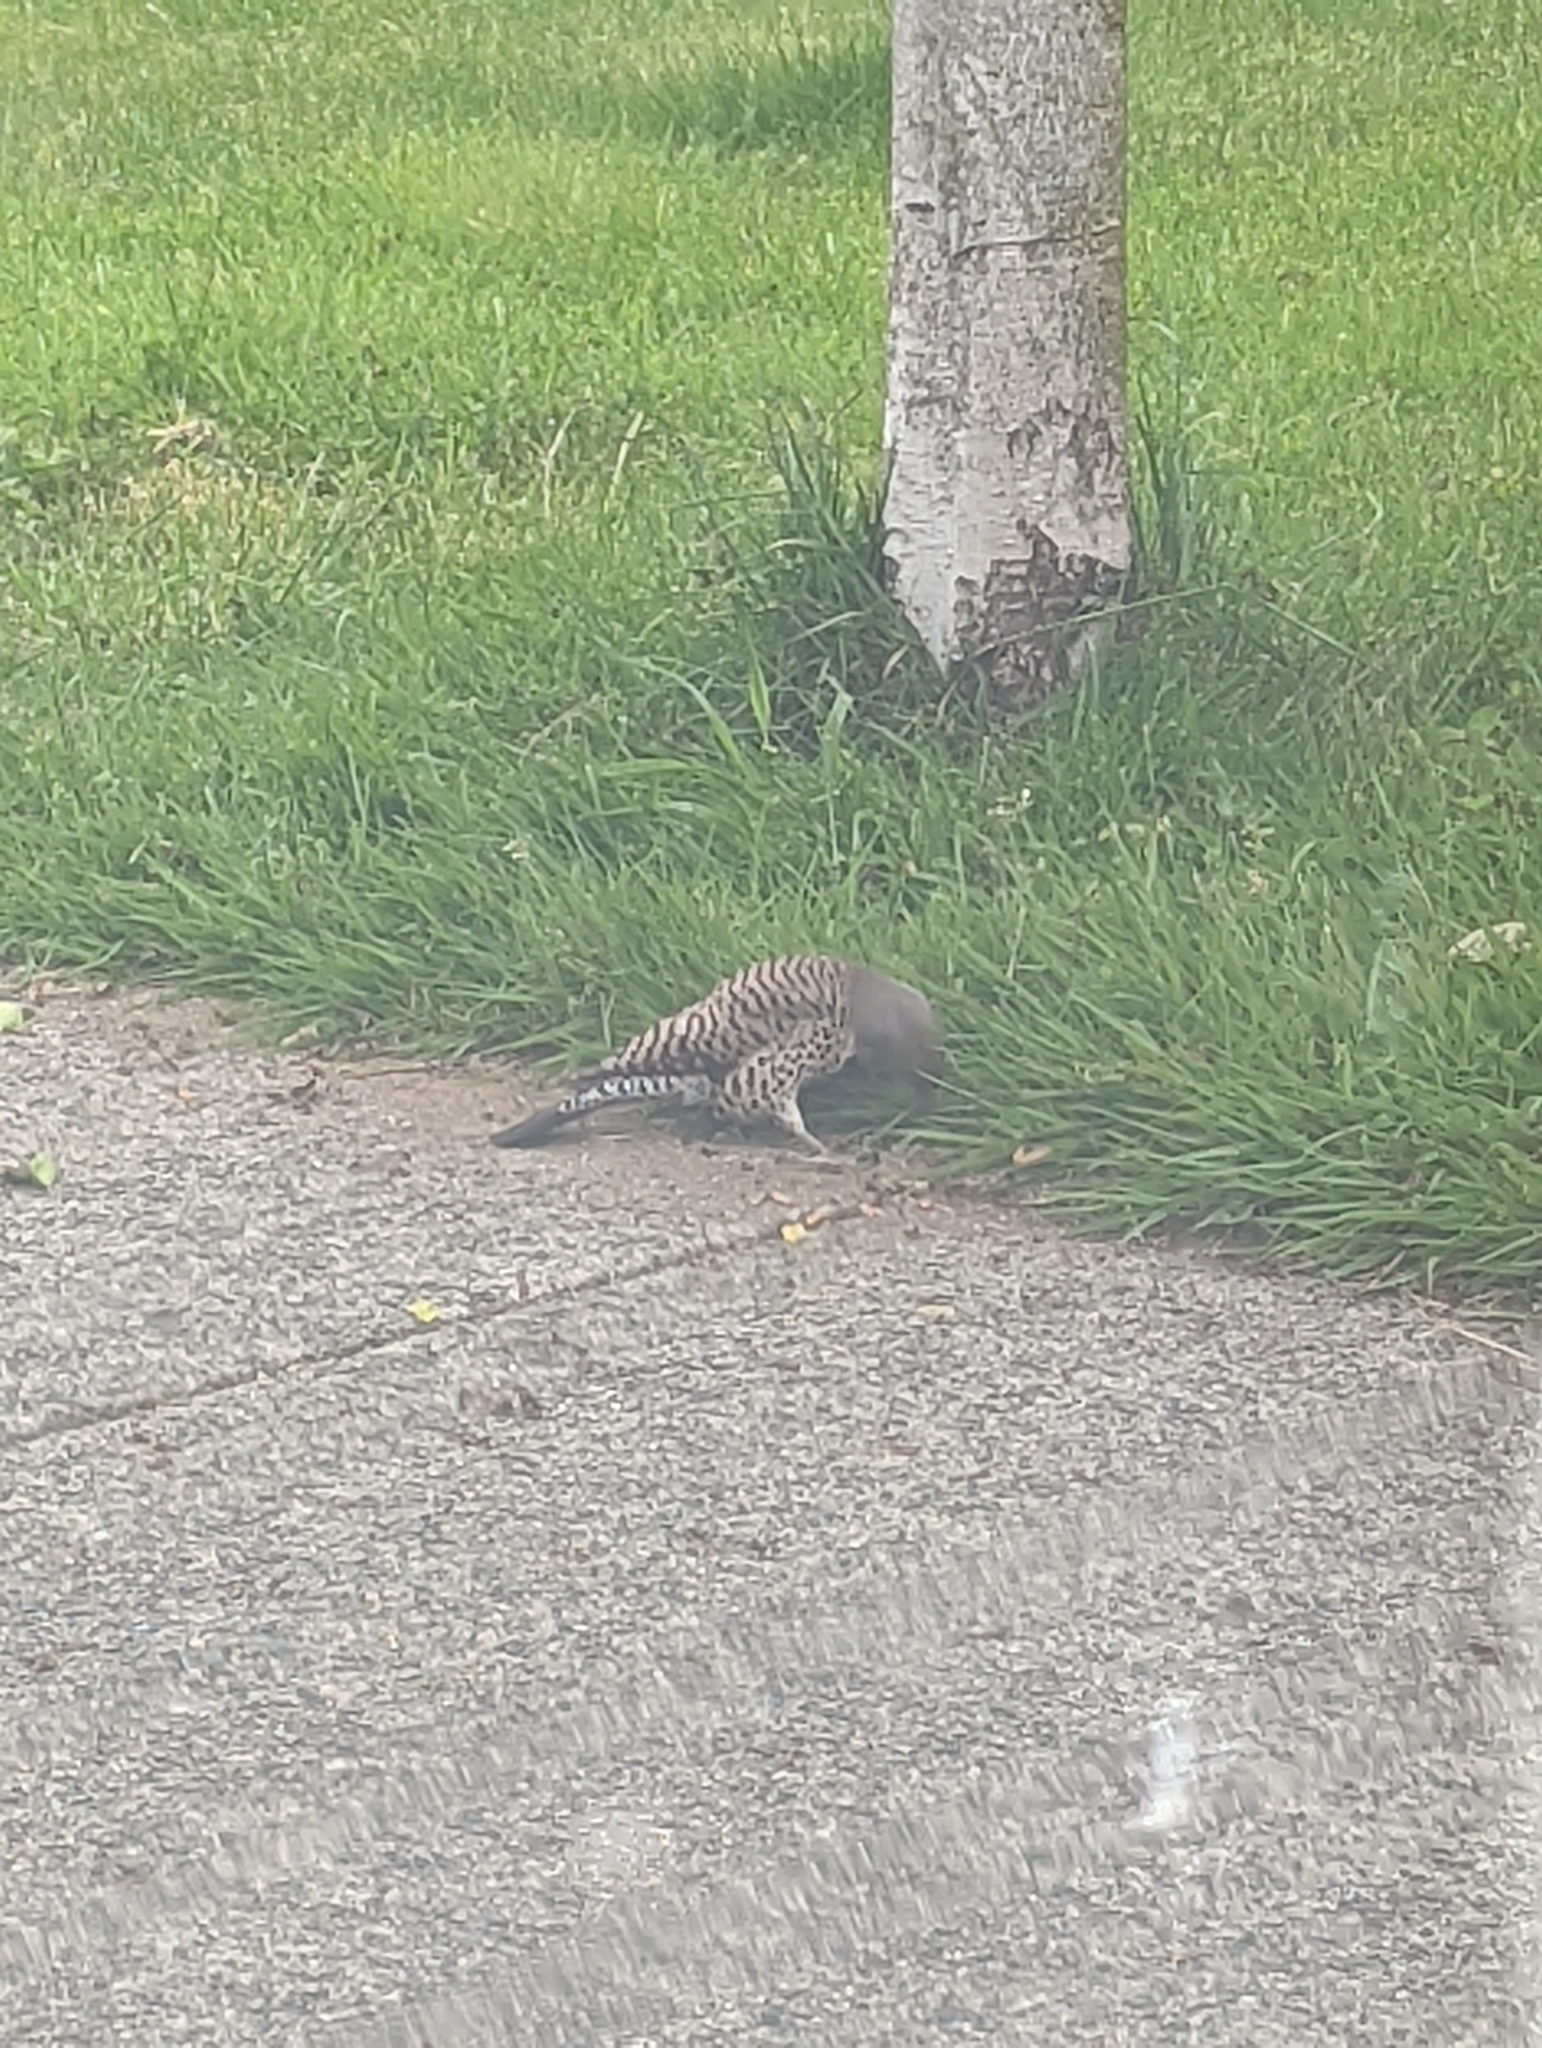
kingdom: Animalia
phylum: Chordata
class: Aves
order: Piciformes
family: Picidae
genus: Colaptes
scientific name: Colaptes auratus
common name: Northern flicker
